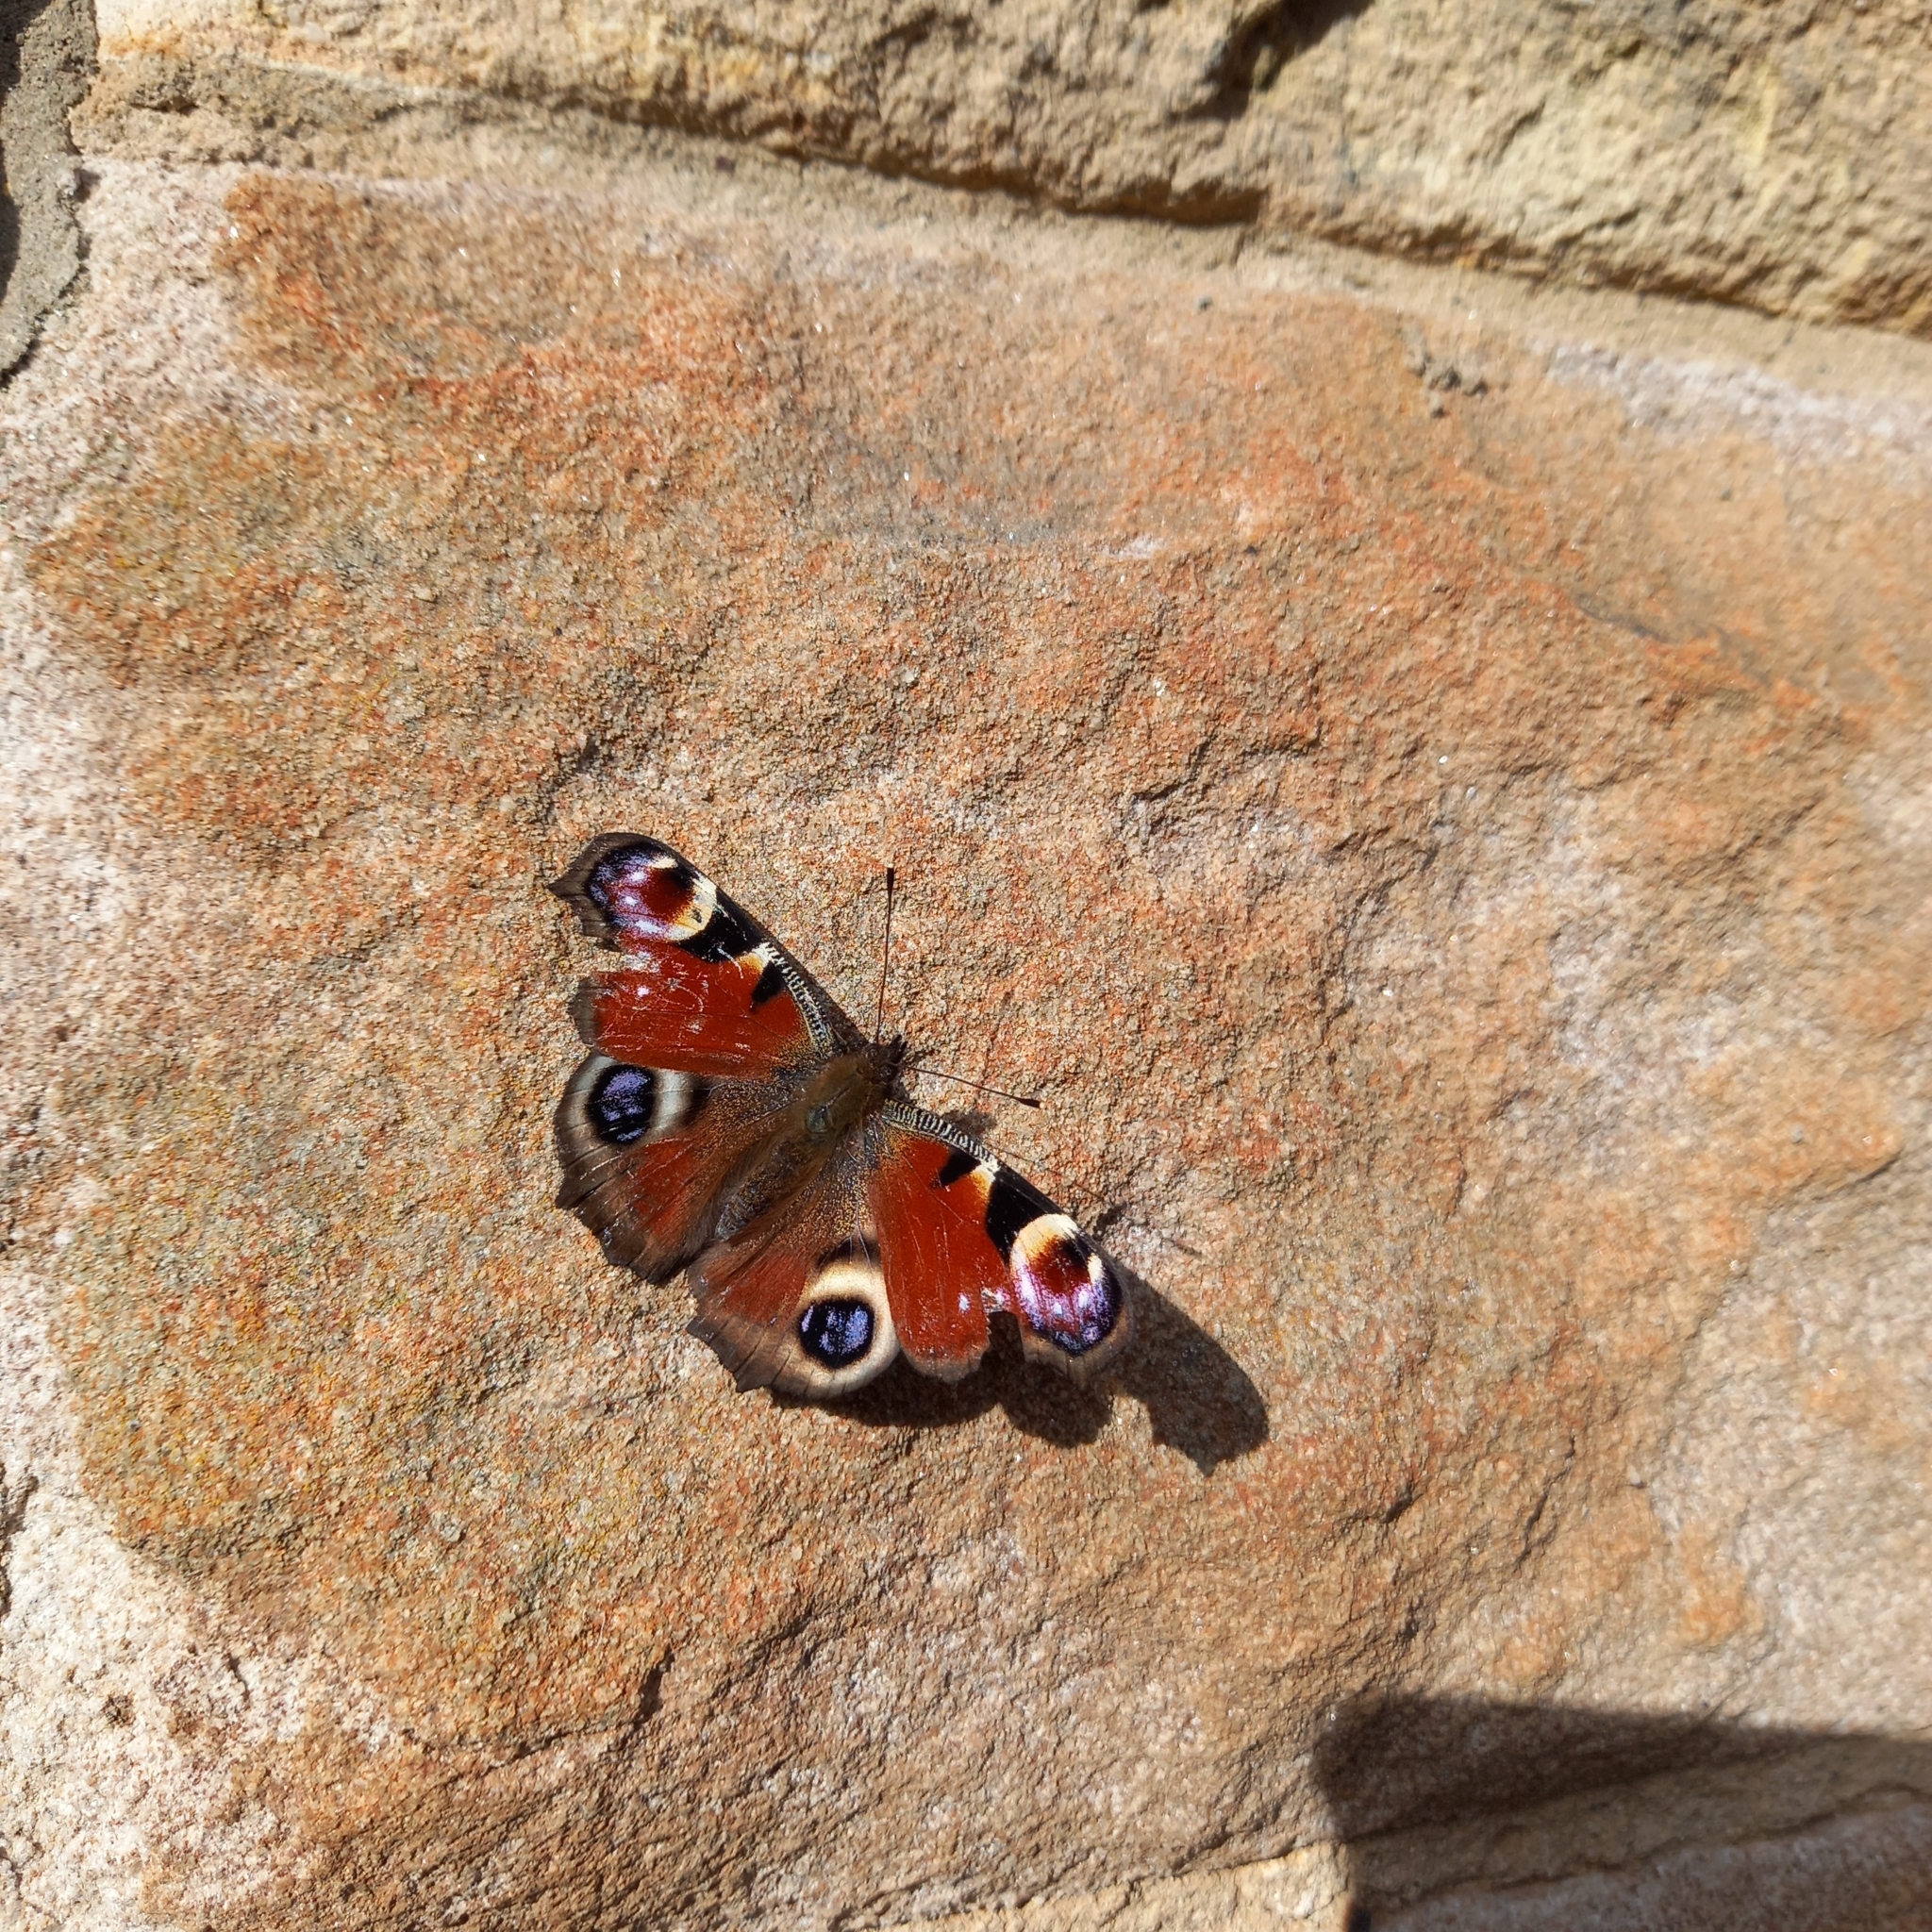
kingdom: Animalia
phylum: Arthropoda
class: Insecta
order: Lepidoptera
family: Nymphalidae
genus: Aglais
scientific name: Aglais io
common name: Peacock
